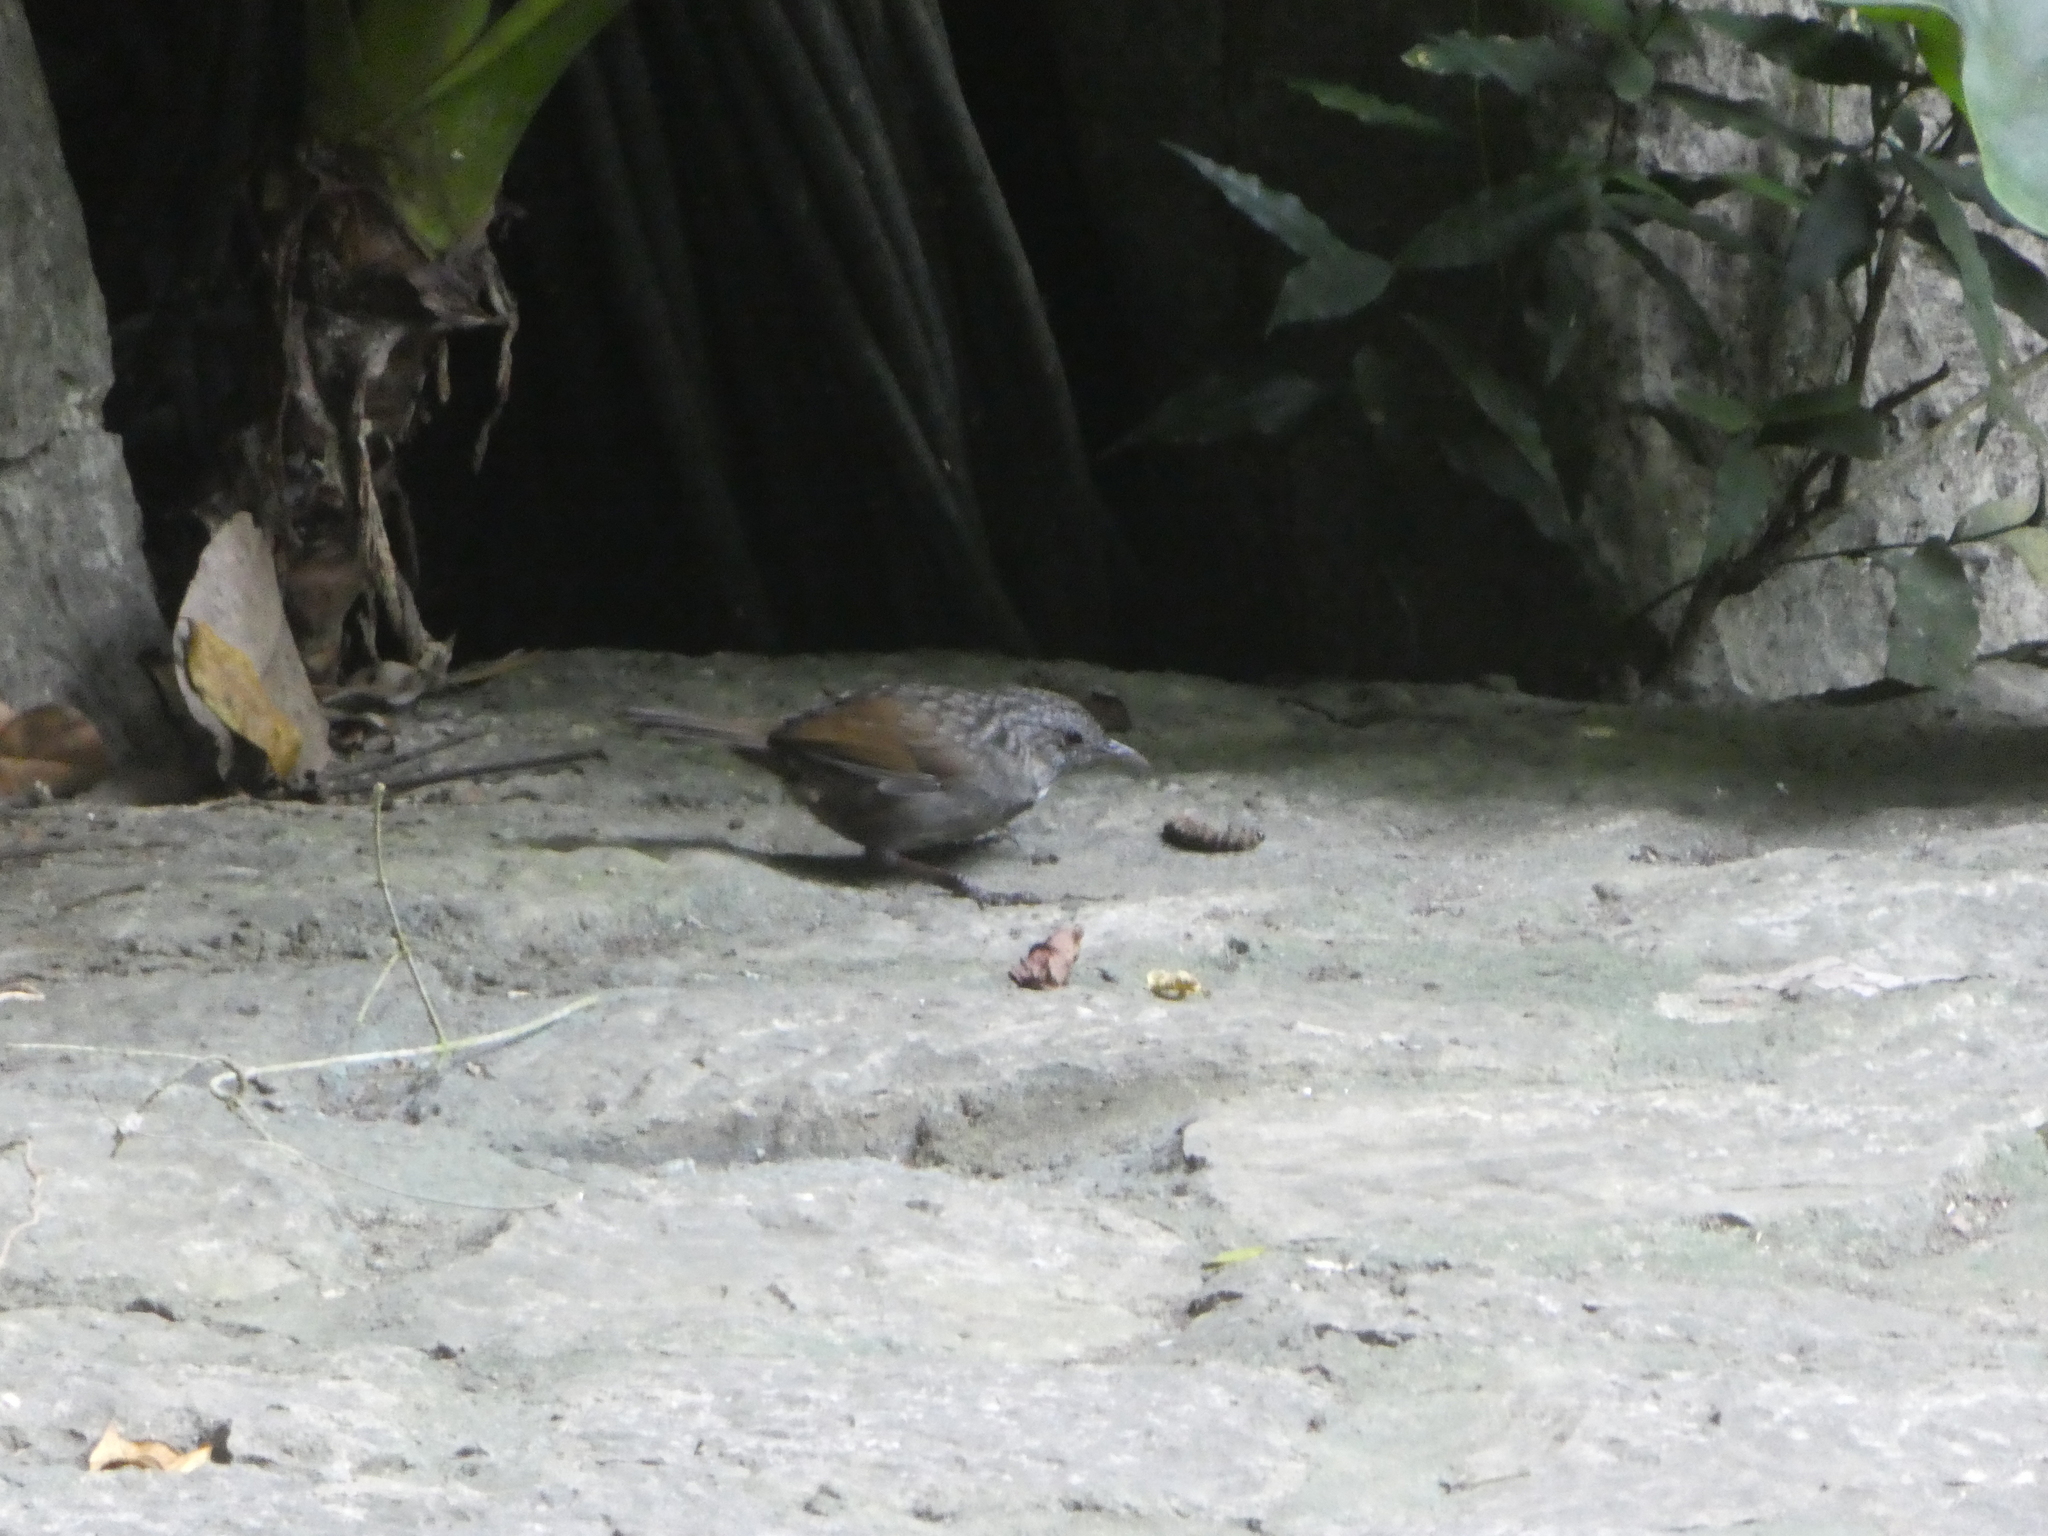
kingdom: Animalia
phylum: Chordata
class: Aves
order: Passeriformes
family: Pellorneidae
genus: Napothera
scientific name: Napothera brevicaudata
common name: Streaked wren-babbler
